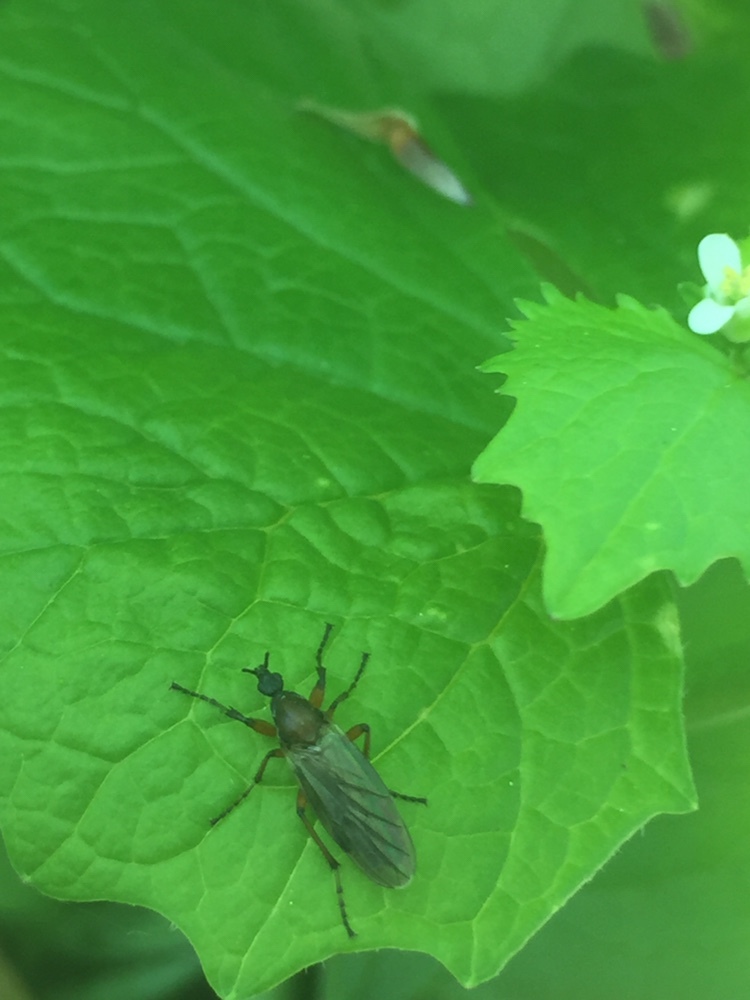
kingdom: Animalia
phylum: Arthropoda
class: Insecta
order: Diptera
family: Bibionidae
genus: Bibio
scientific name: Bibio articulatus
